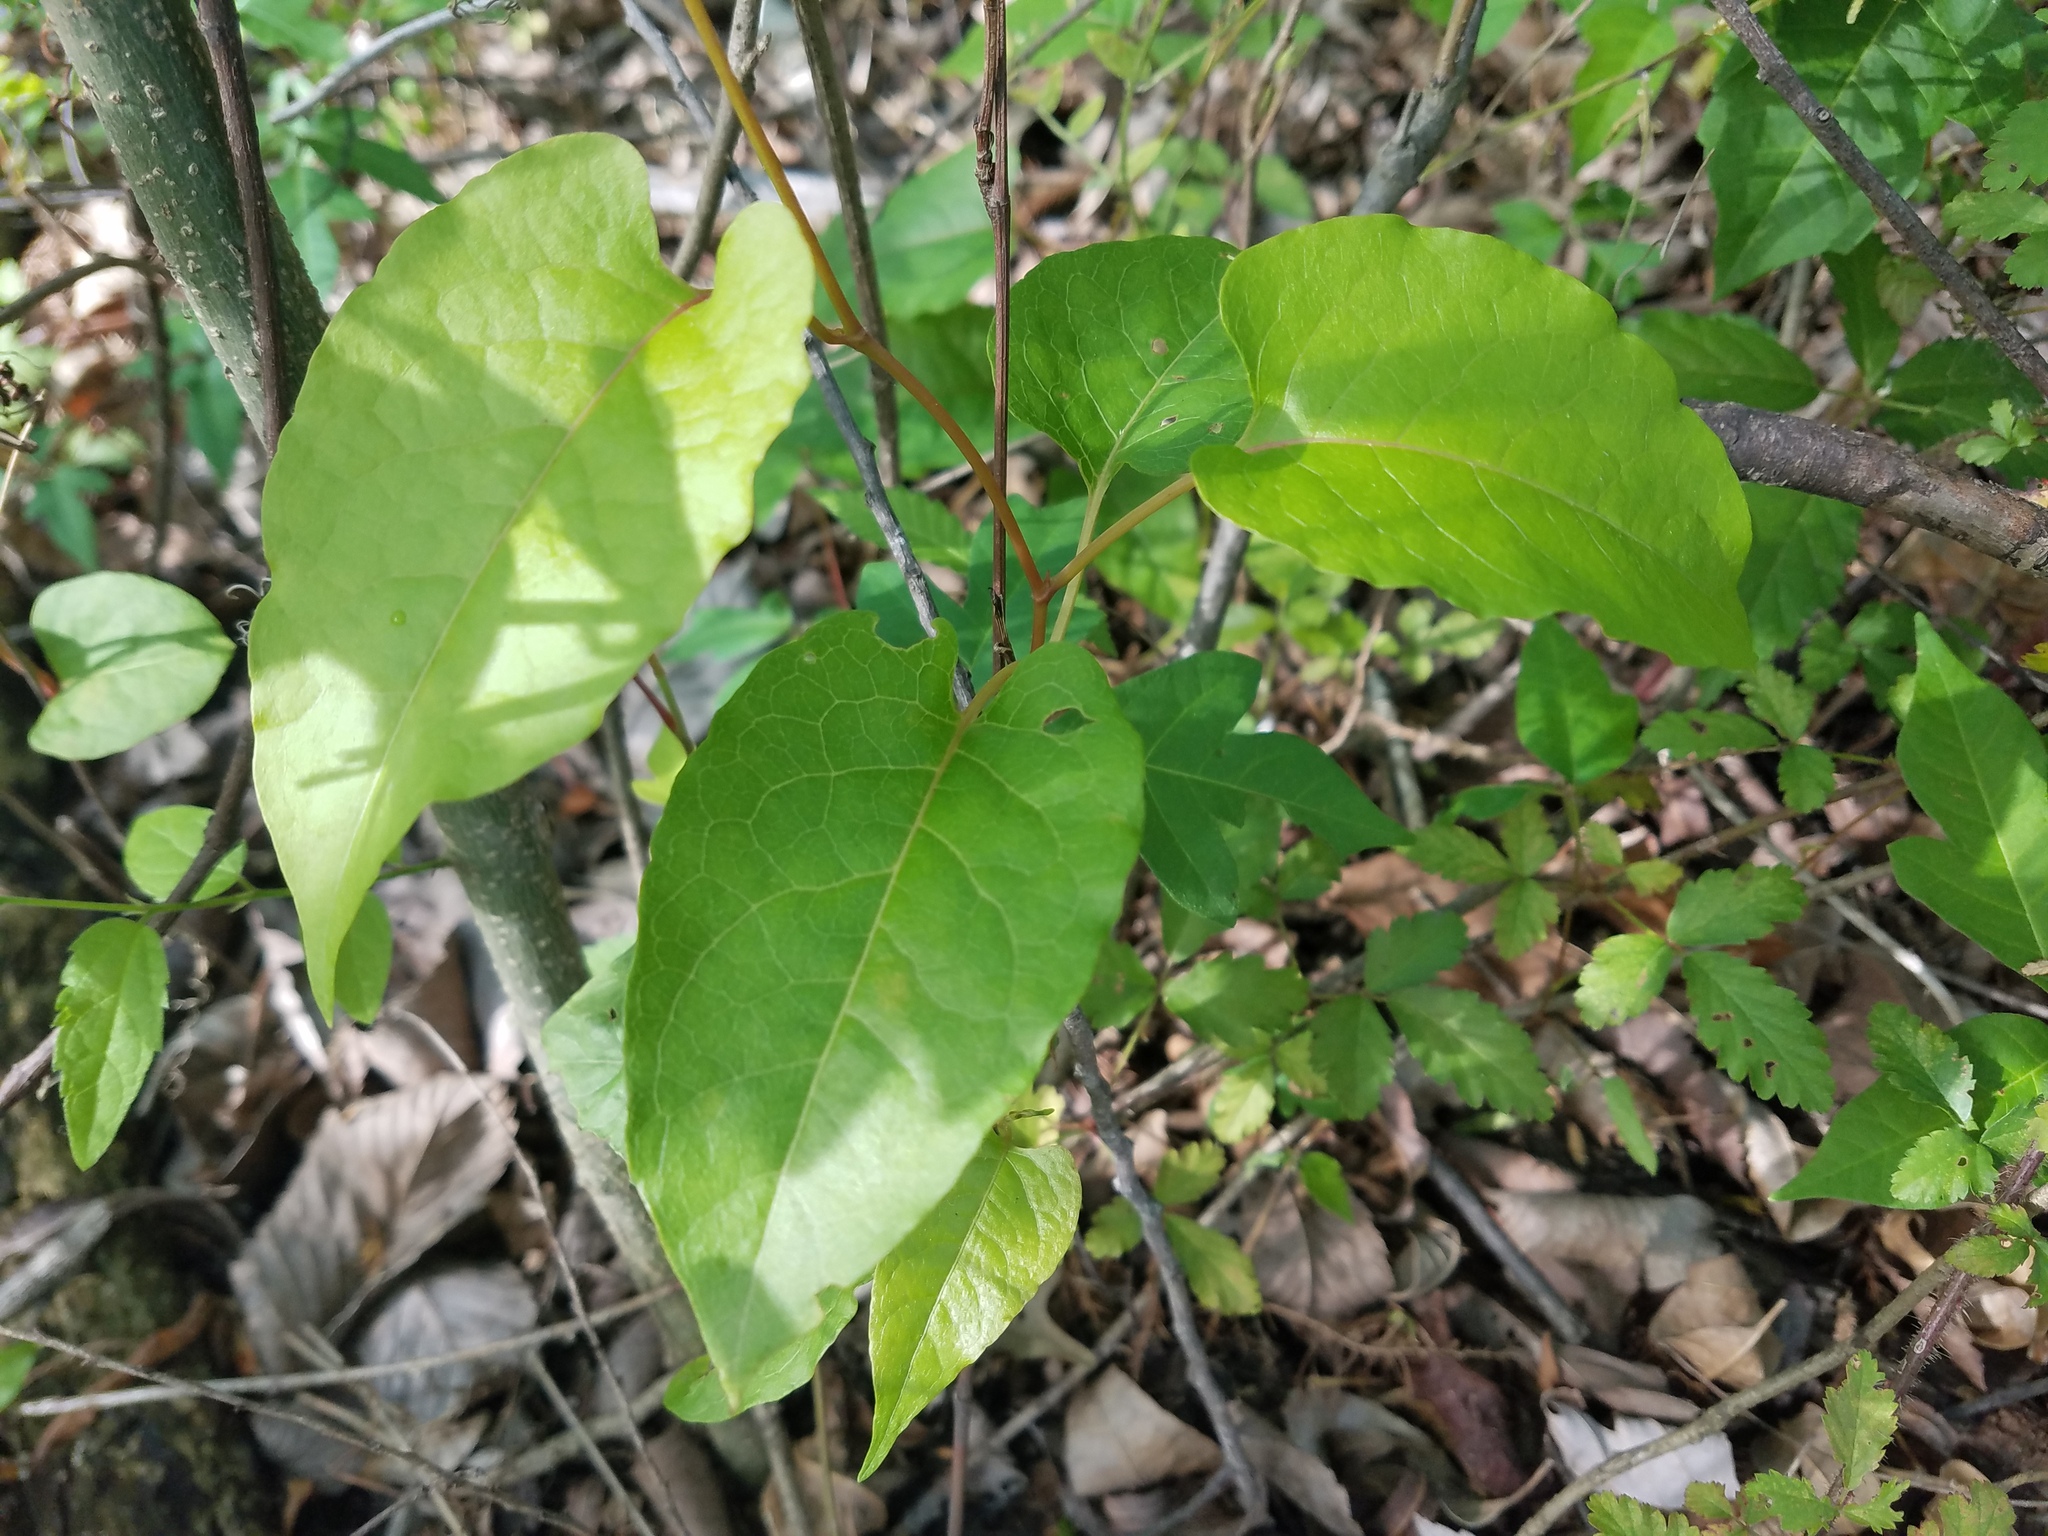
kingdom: Plantae
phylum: Tracheophyta
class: Magnoliopsida
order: Caryophyllales
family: Polygonaceae
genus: Brunnichia
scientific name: Brunnichia ovata
